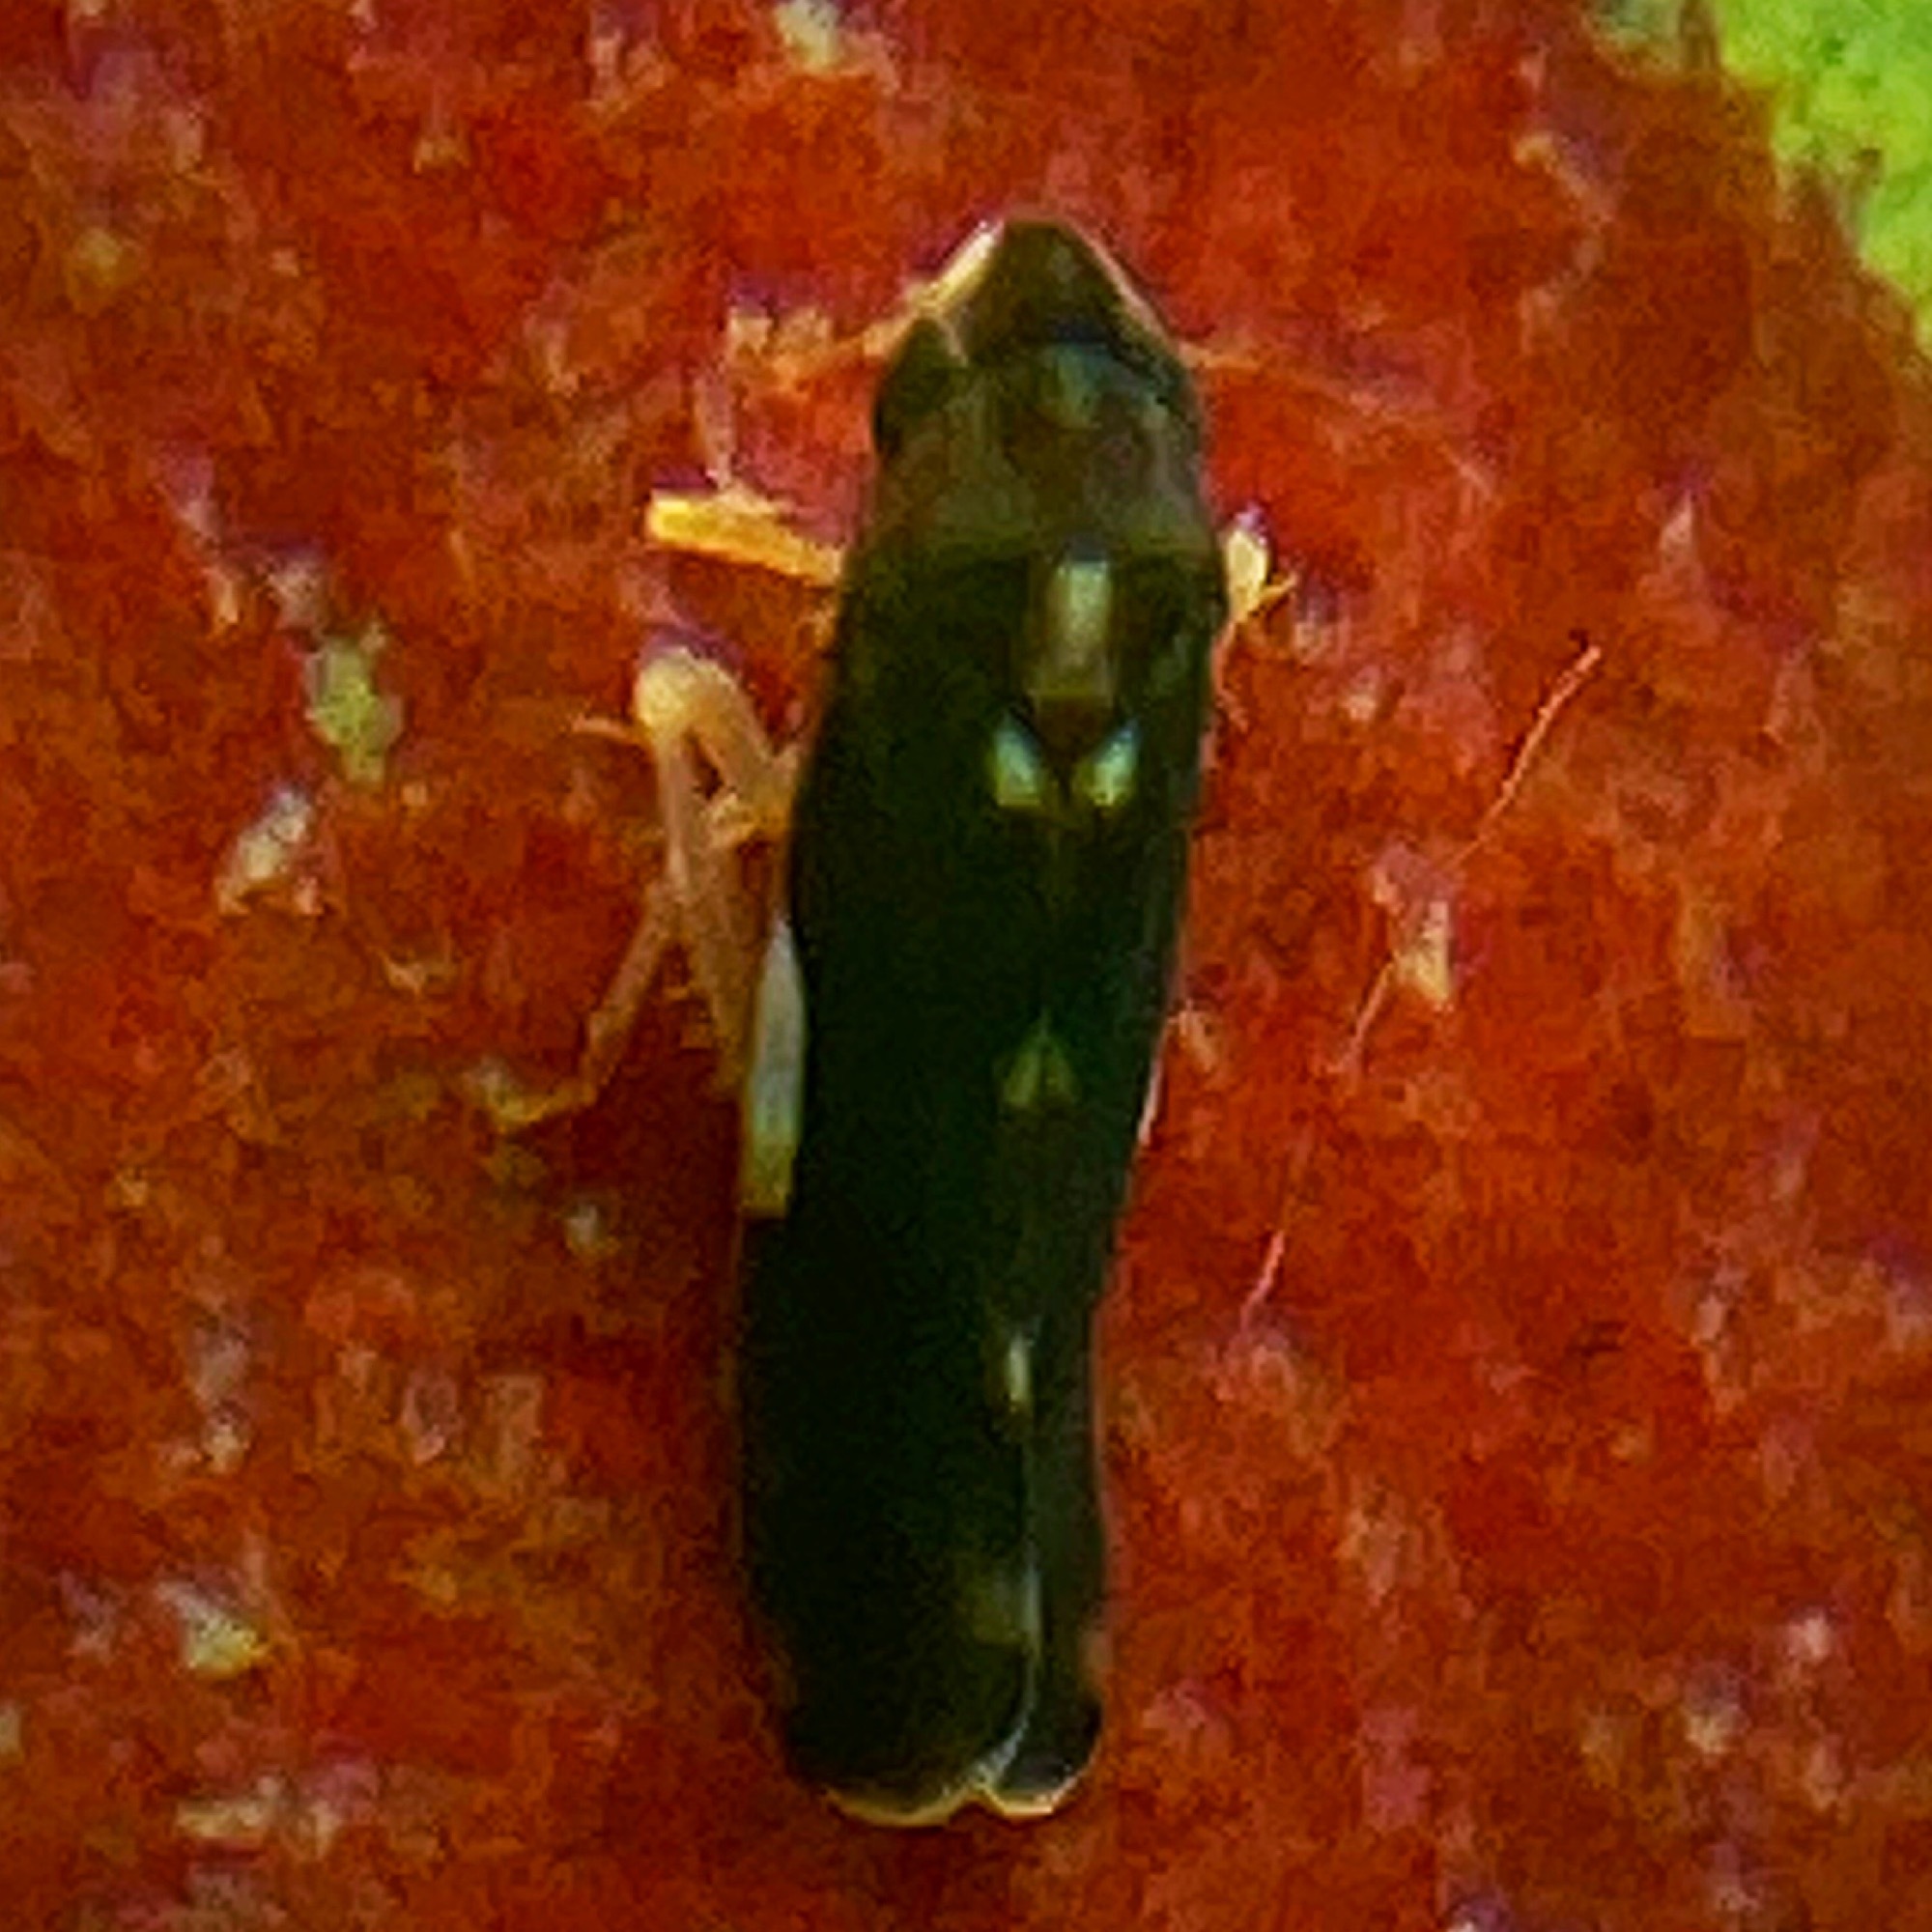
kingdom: Animalia
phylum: Arthropoda
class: Insecta
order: Hemiptera
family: Cicadellidae
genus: Erythroneura
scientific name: Erythroneura infuscata
